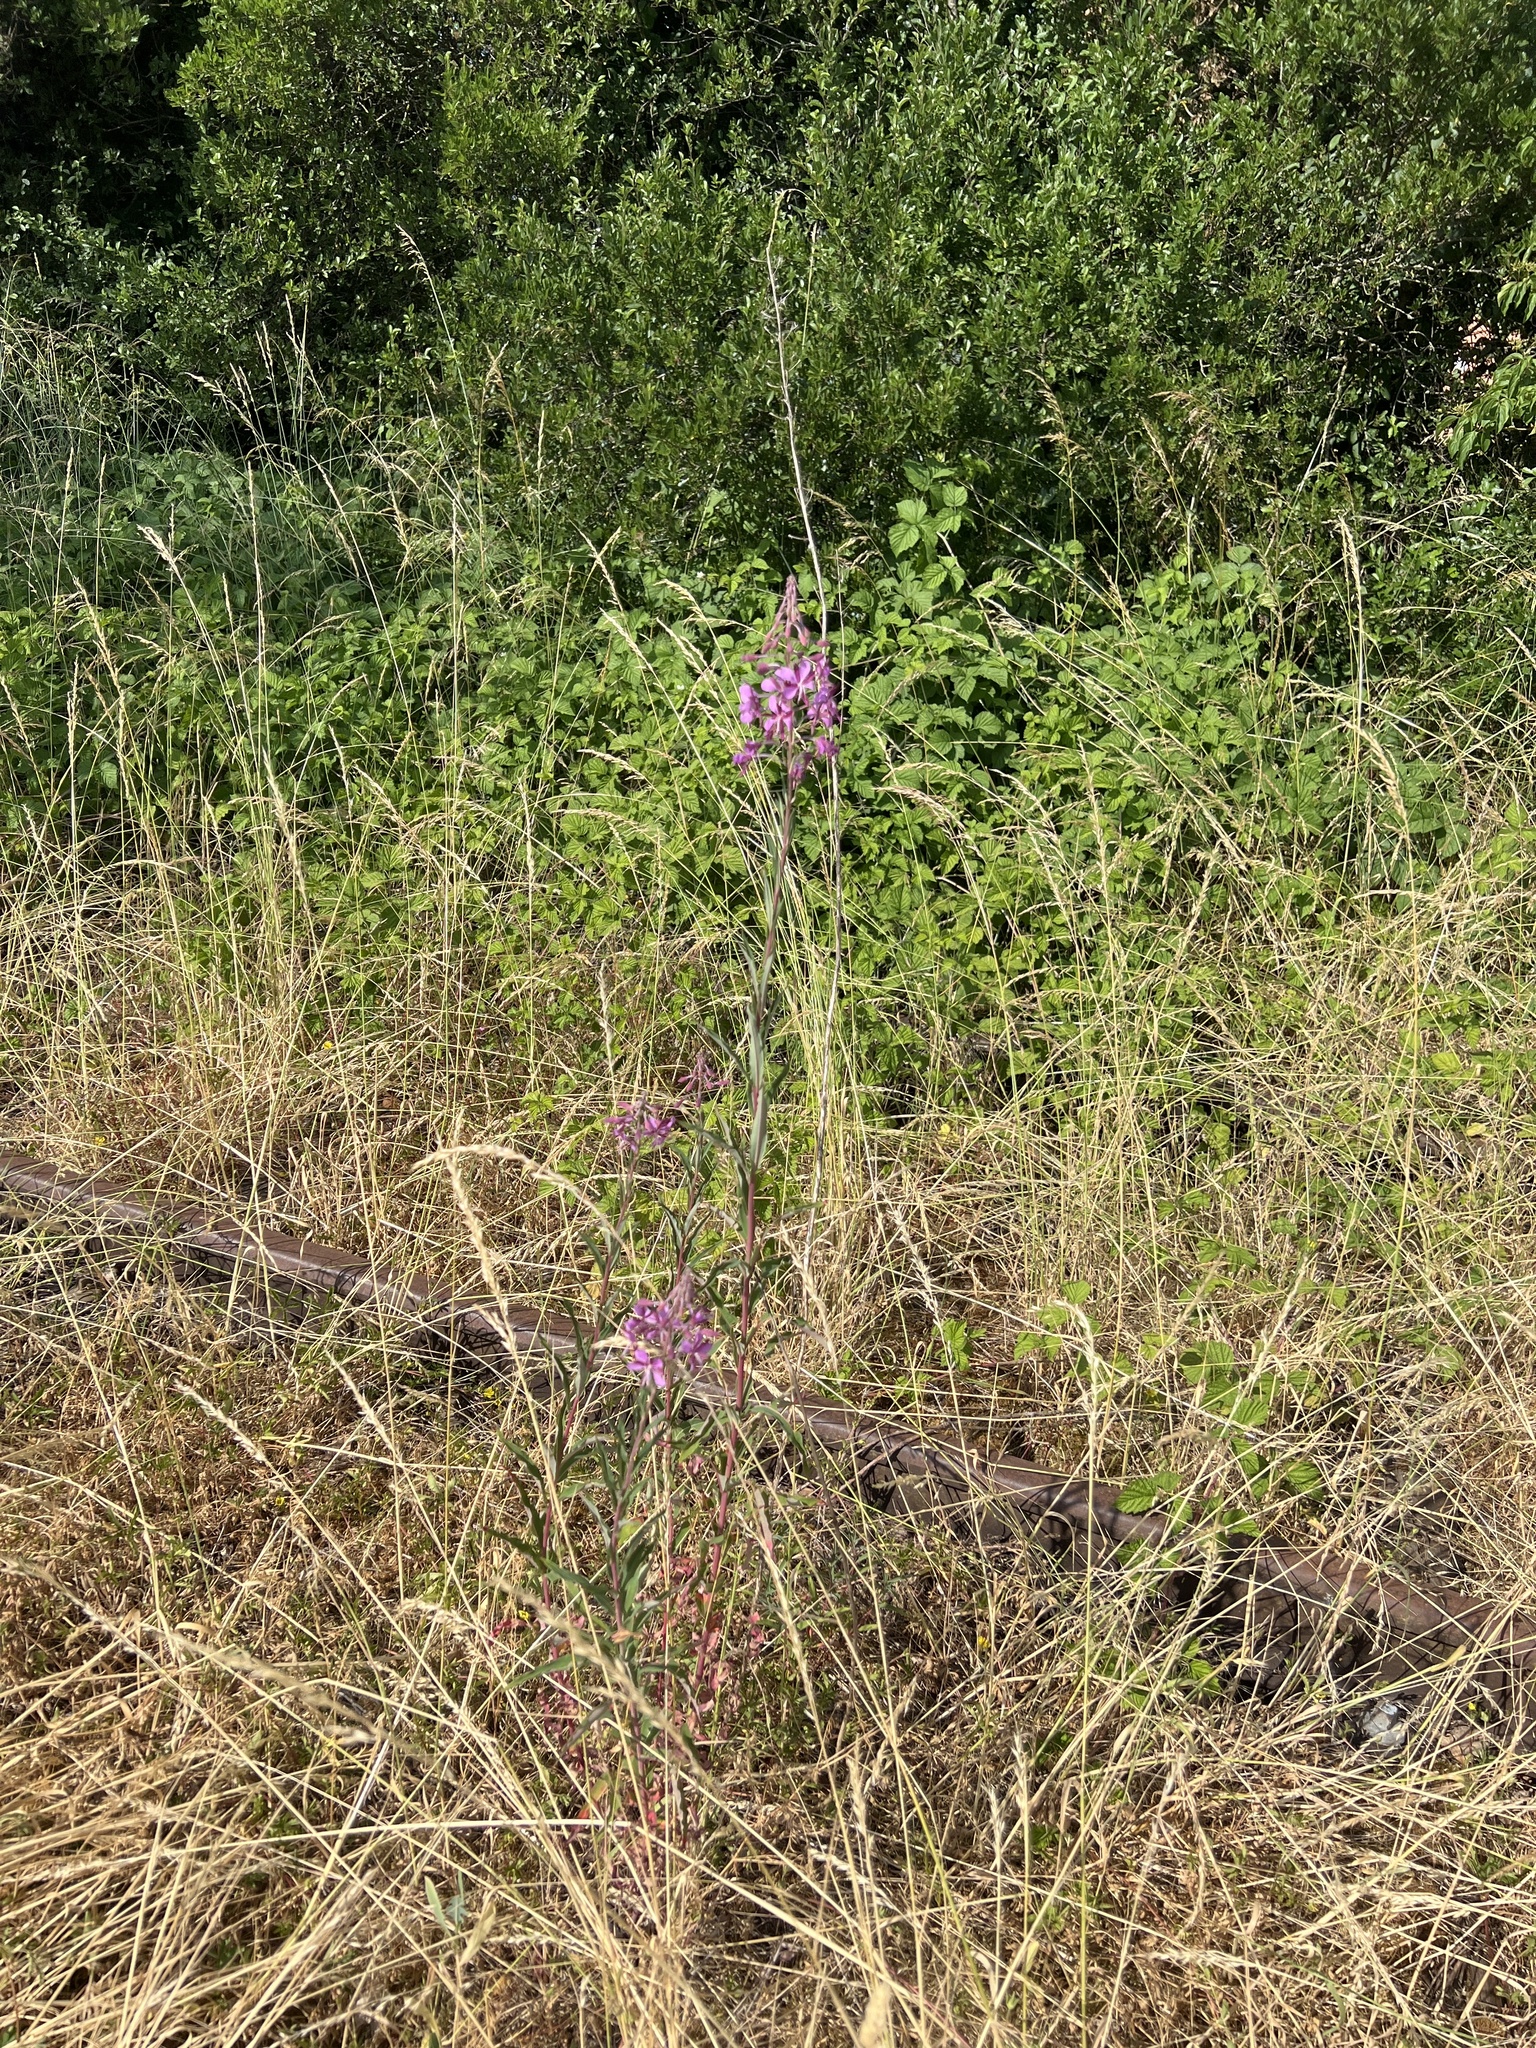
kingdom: Plantae
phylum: Tracheophyta
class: Magnoliopsida
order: Myrtales
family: Onagraceae
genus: Chamaenerion
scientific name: Chamaenerion angustifolium
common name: Fireweed
